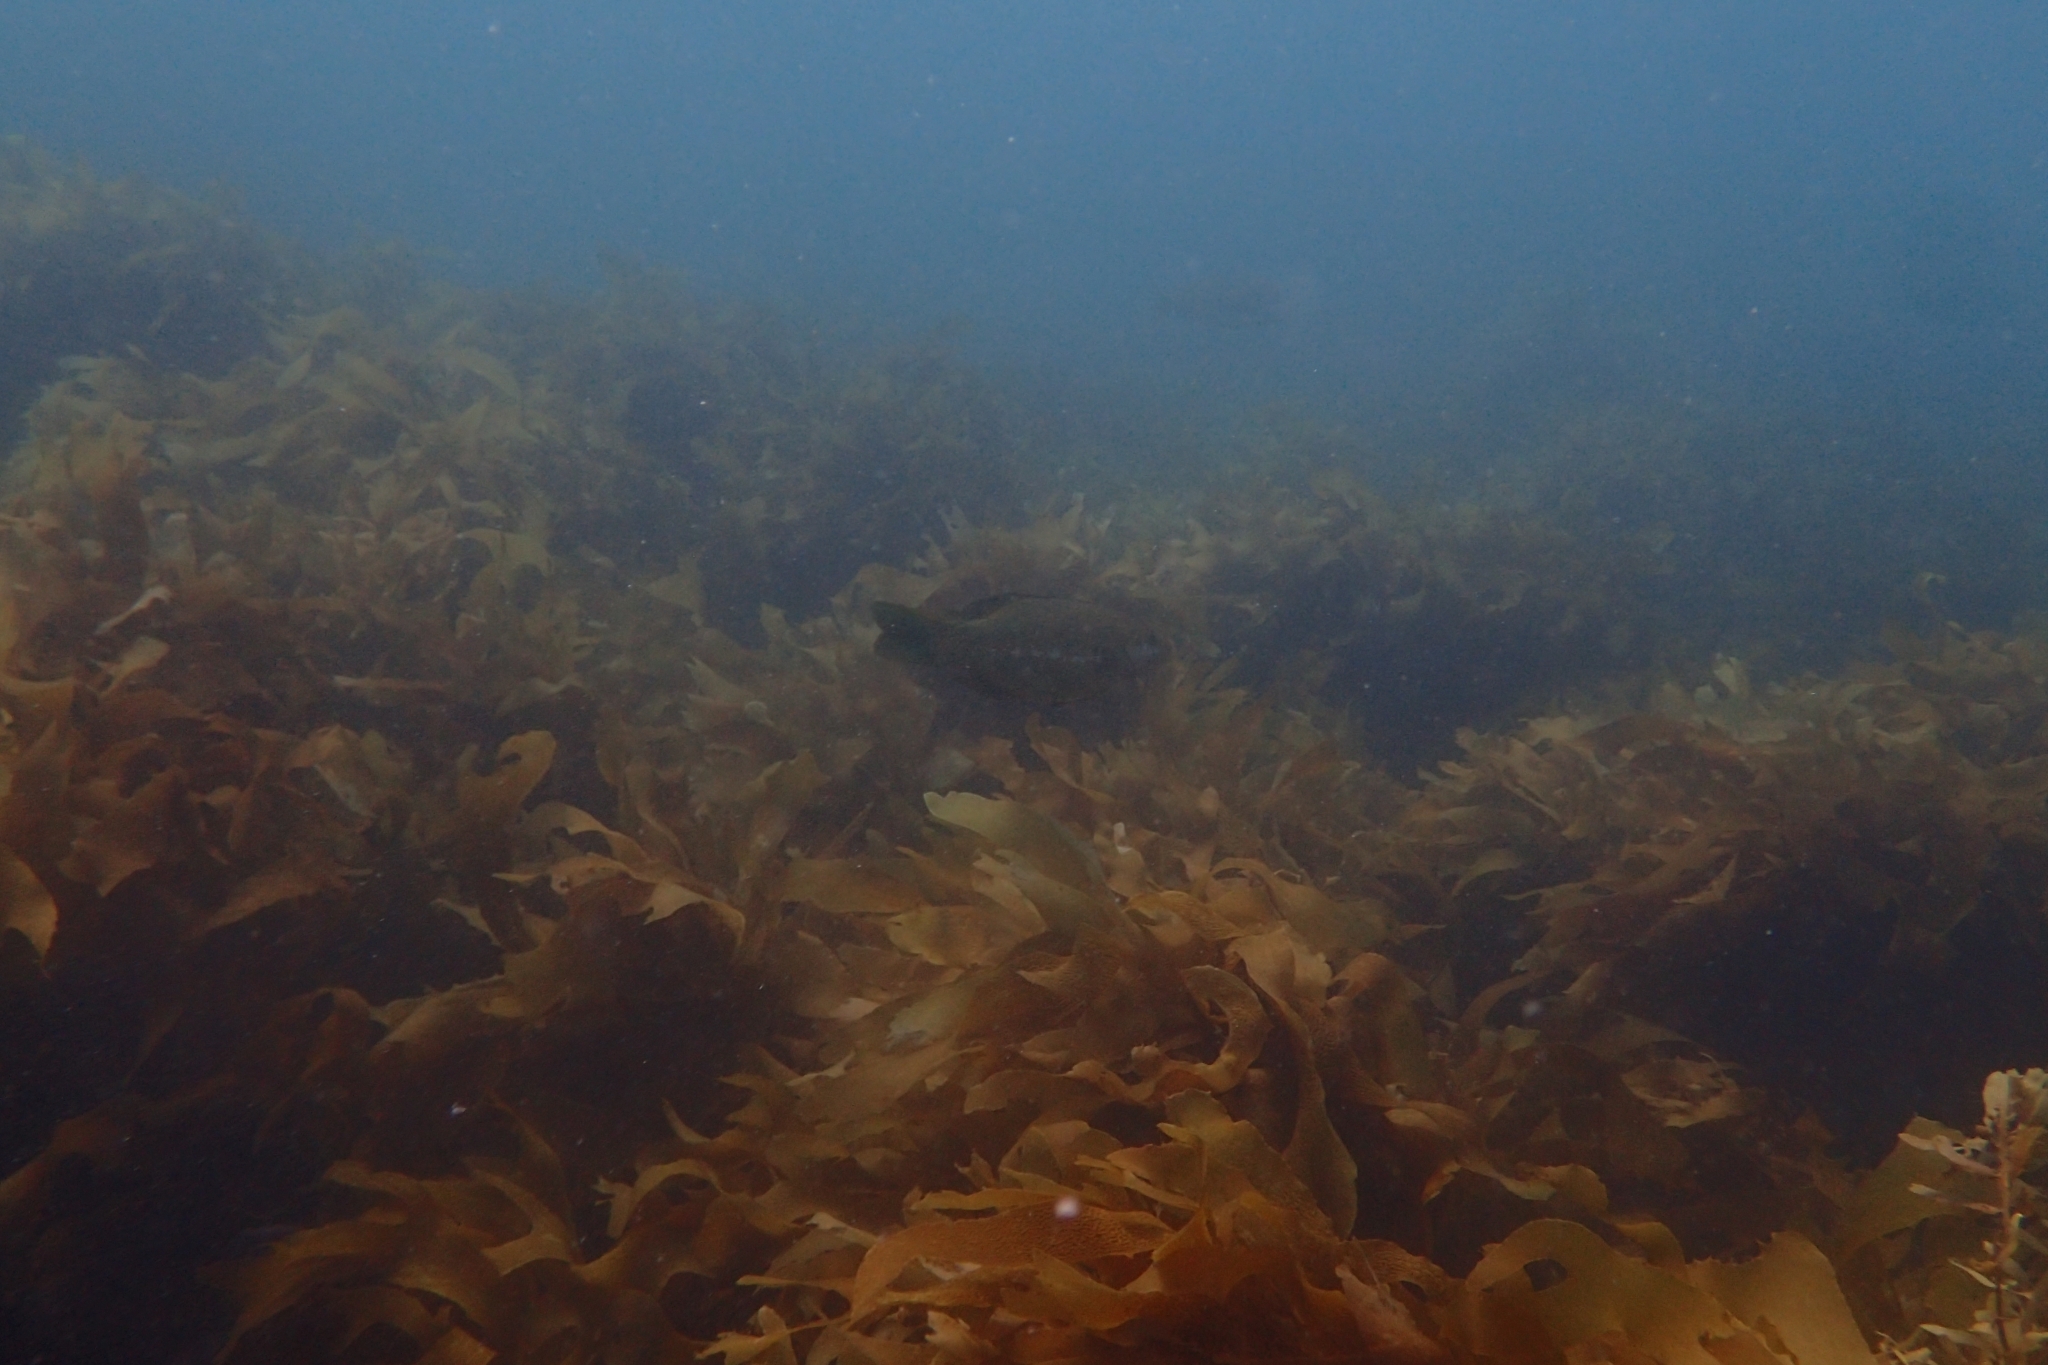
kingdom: Animalia
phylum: Chordata
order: Perciformes
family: Odacidae
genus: Odax
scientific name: Odax pullus
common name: Butterfish
